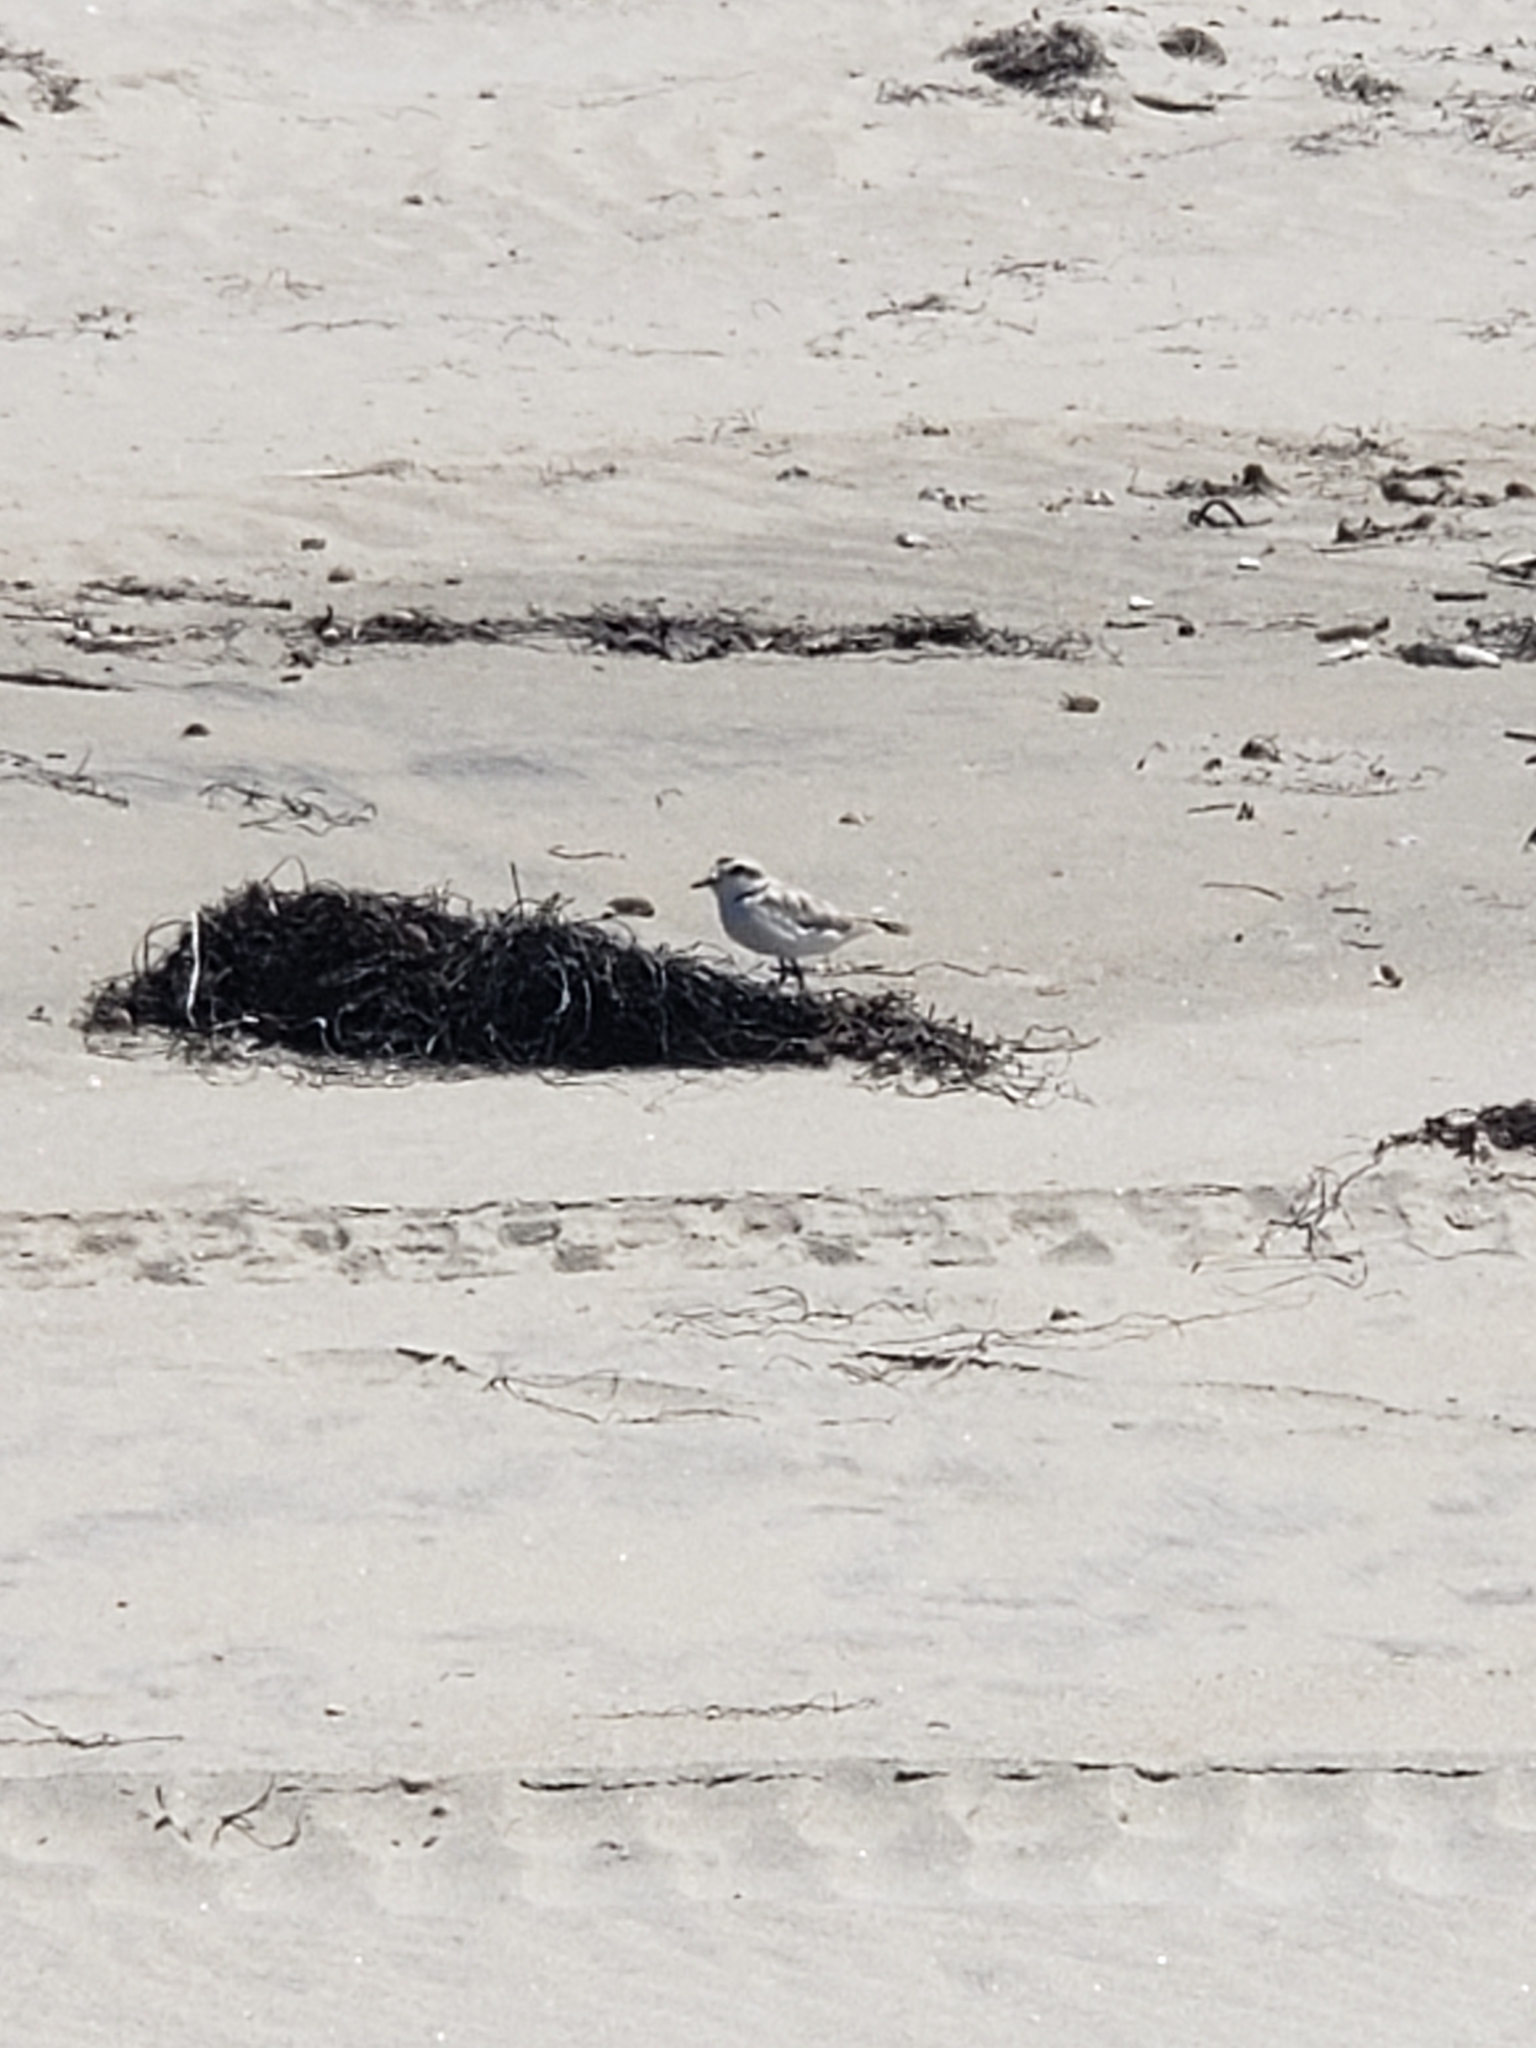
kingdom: Animalia
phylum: Chordata
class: Aves
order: Charadriiformes
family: Charadriidae
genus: Anarhynchus
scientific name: Anarhynchus
